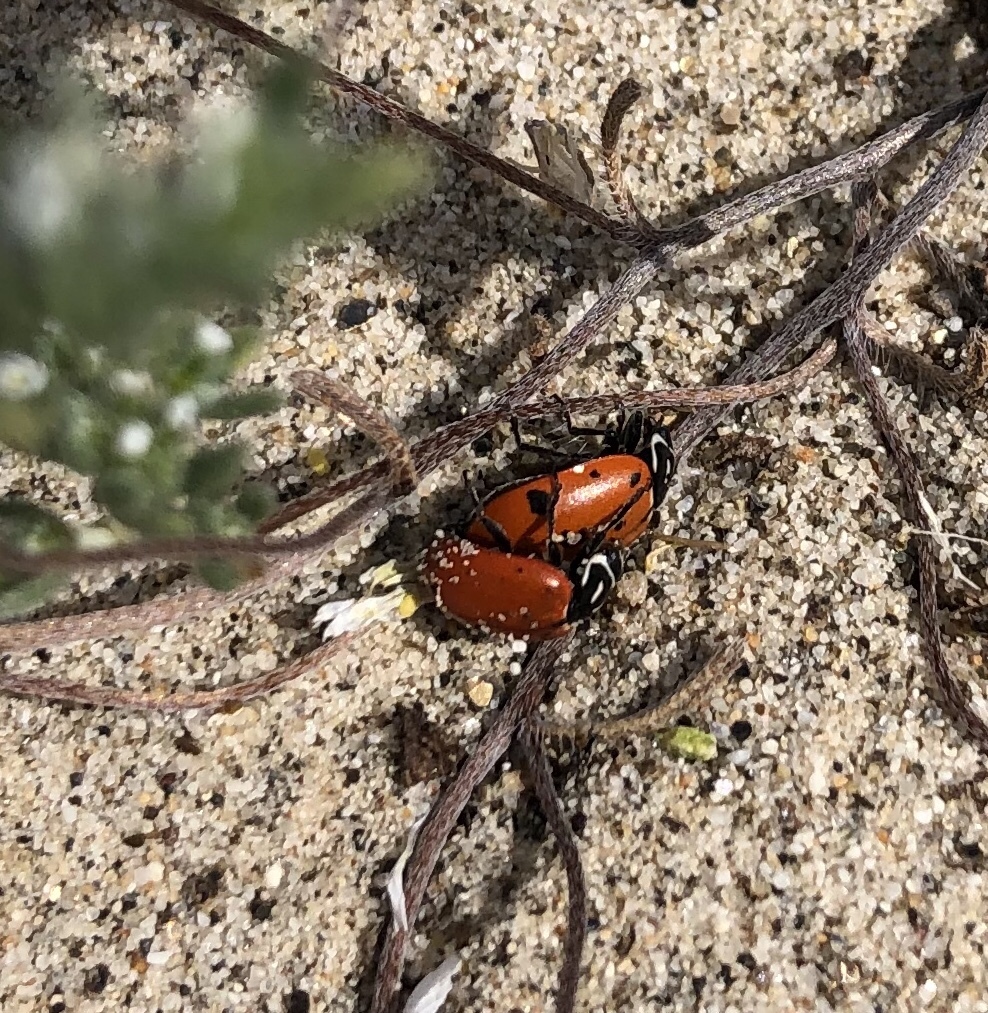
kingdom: Animalia
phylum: Arthropoda
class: Insecta
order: Coleoptera
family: Coccinellidae
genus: Hippodamia
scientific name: Hippodamia convergens
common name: Convergent lady beetle
